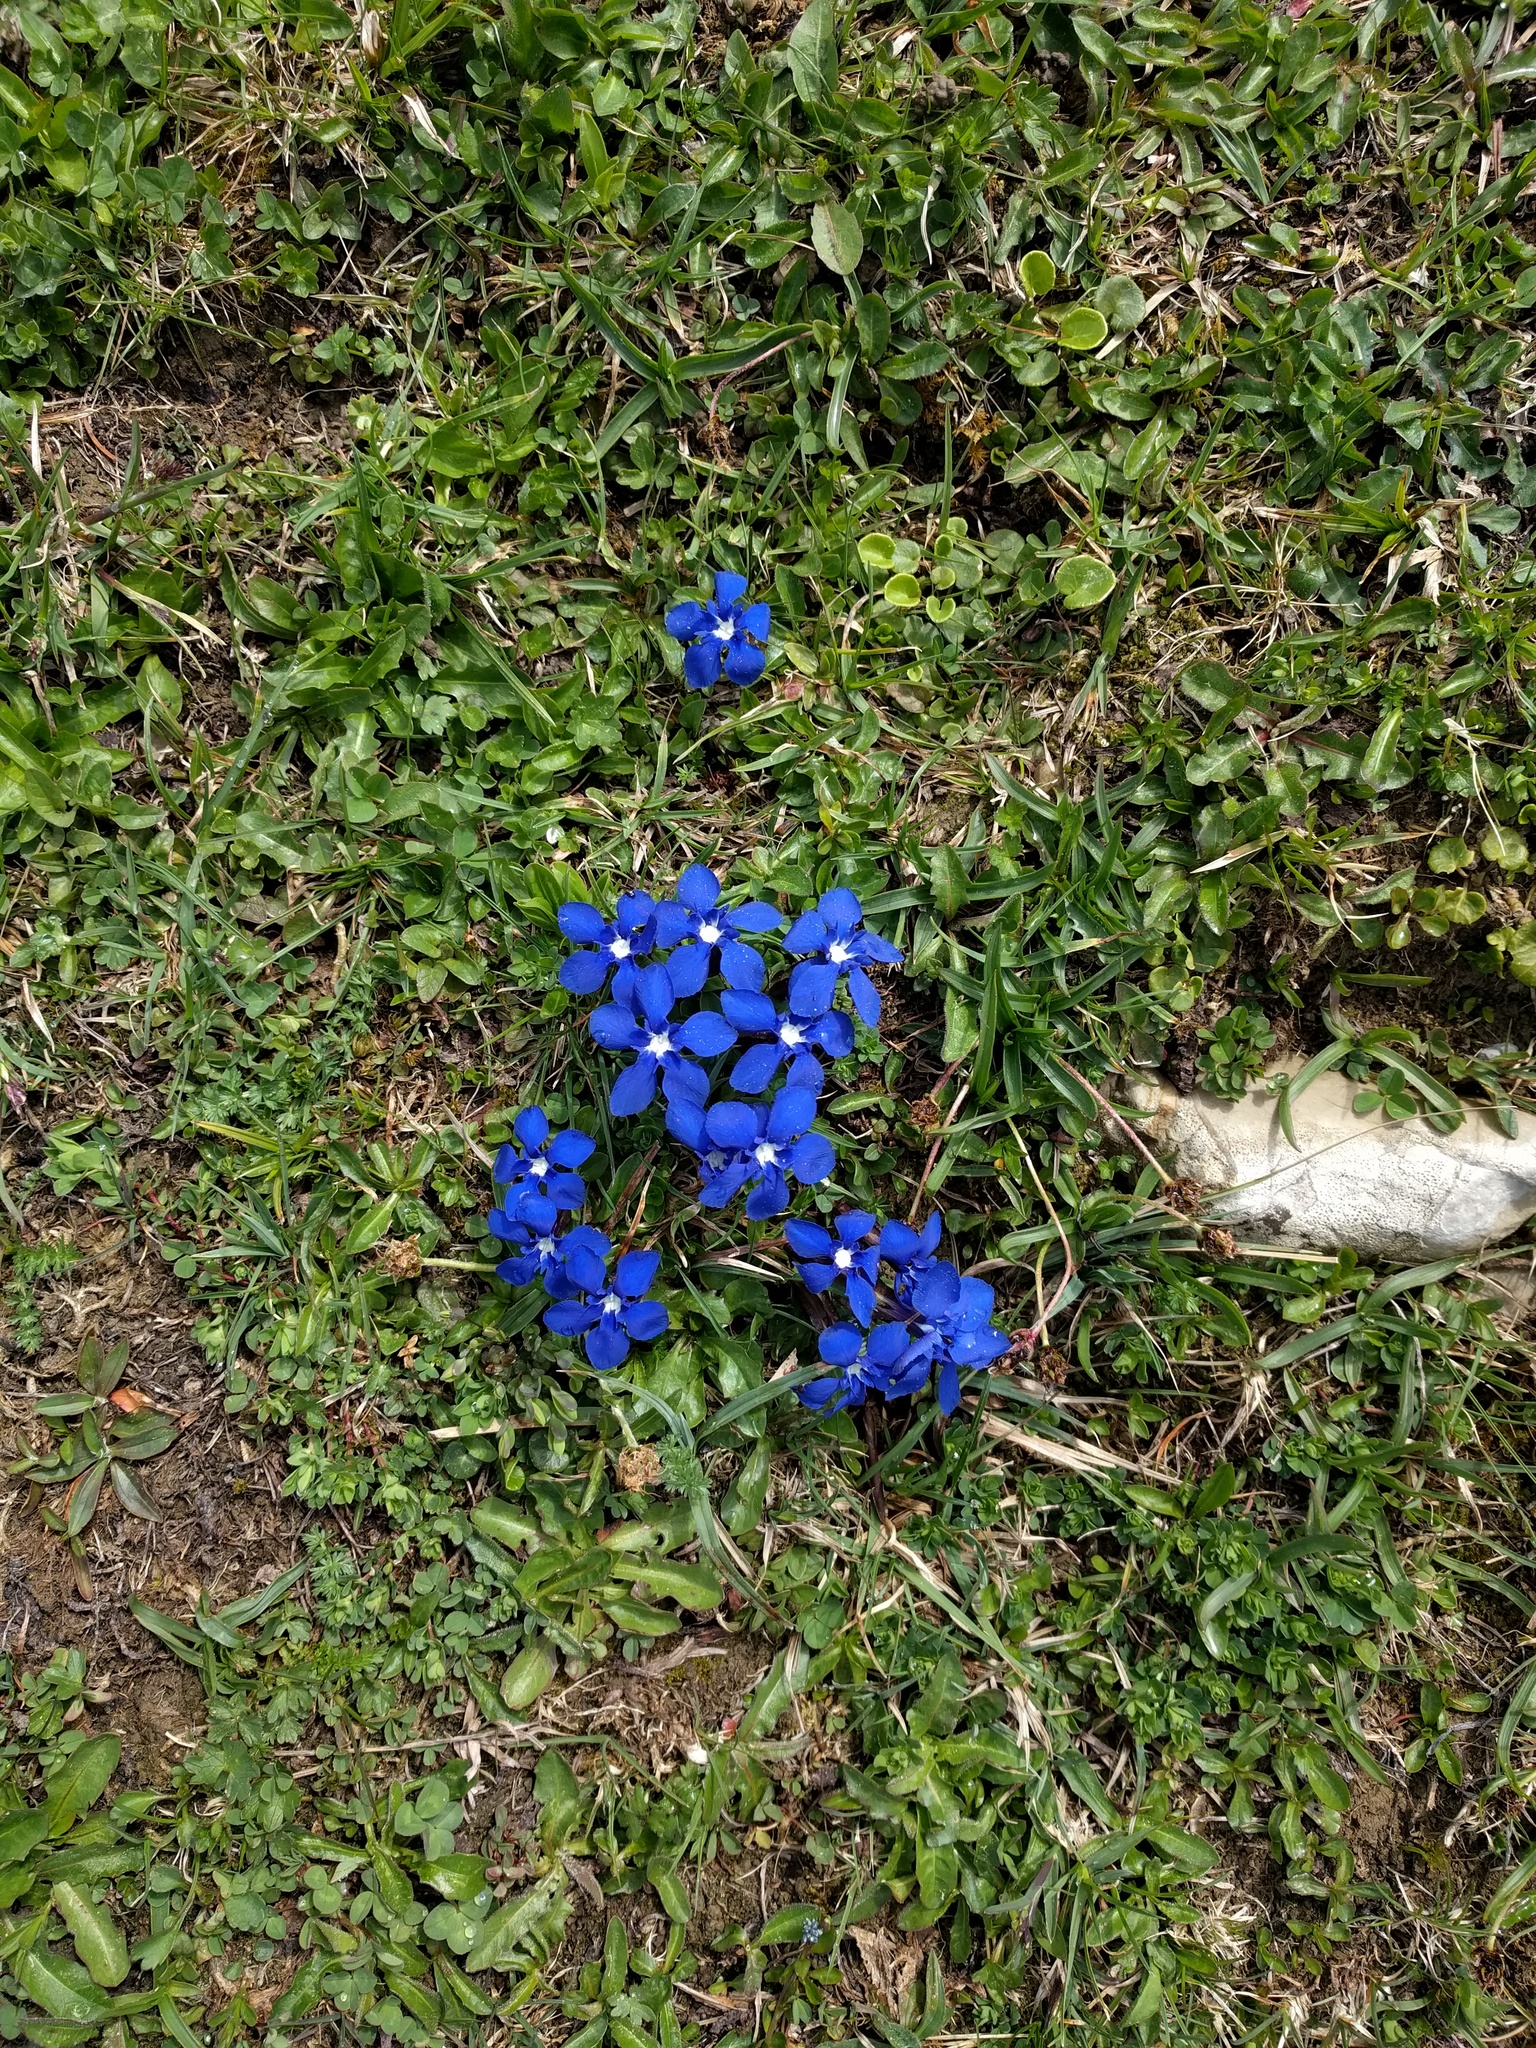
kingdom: Plantae
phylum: Tracheophyta
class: Magnoliopsida
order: Gentianales
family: Gentianaceae
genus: Gentiana
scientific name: Gentiana verna
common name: Spring gentian
